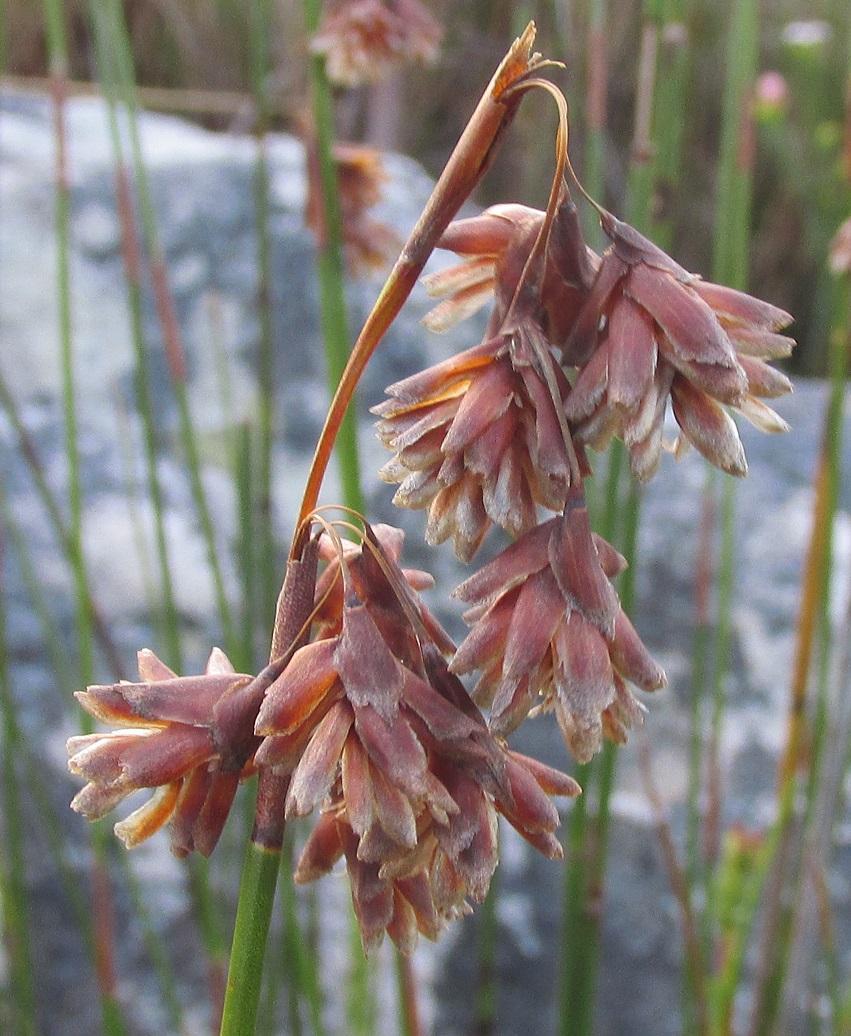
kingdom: Plantae
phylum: Tracheophyta
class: Liliopsida
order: Poales
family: Restionaceae
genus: Staberoha
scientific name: Staberoha banksii
